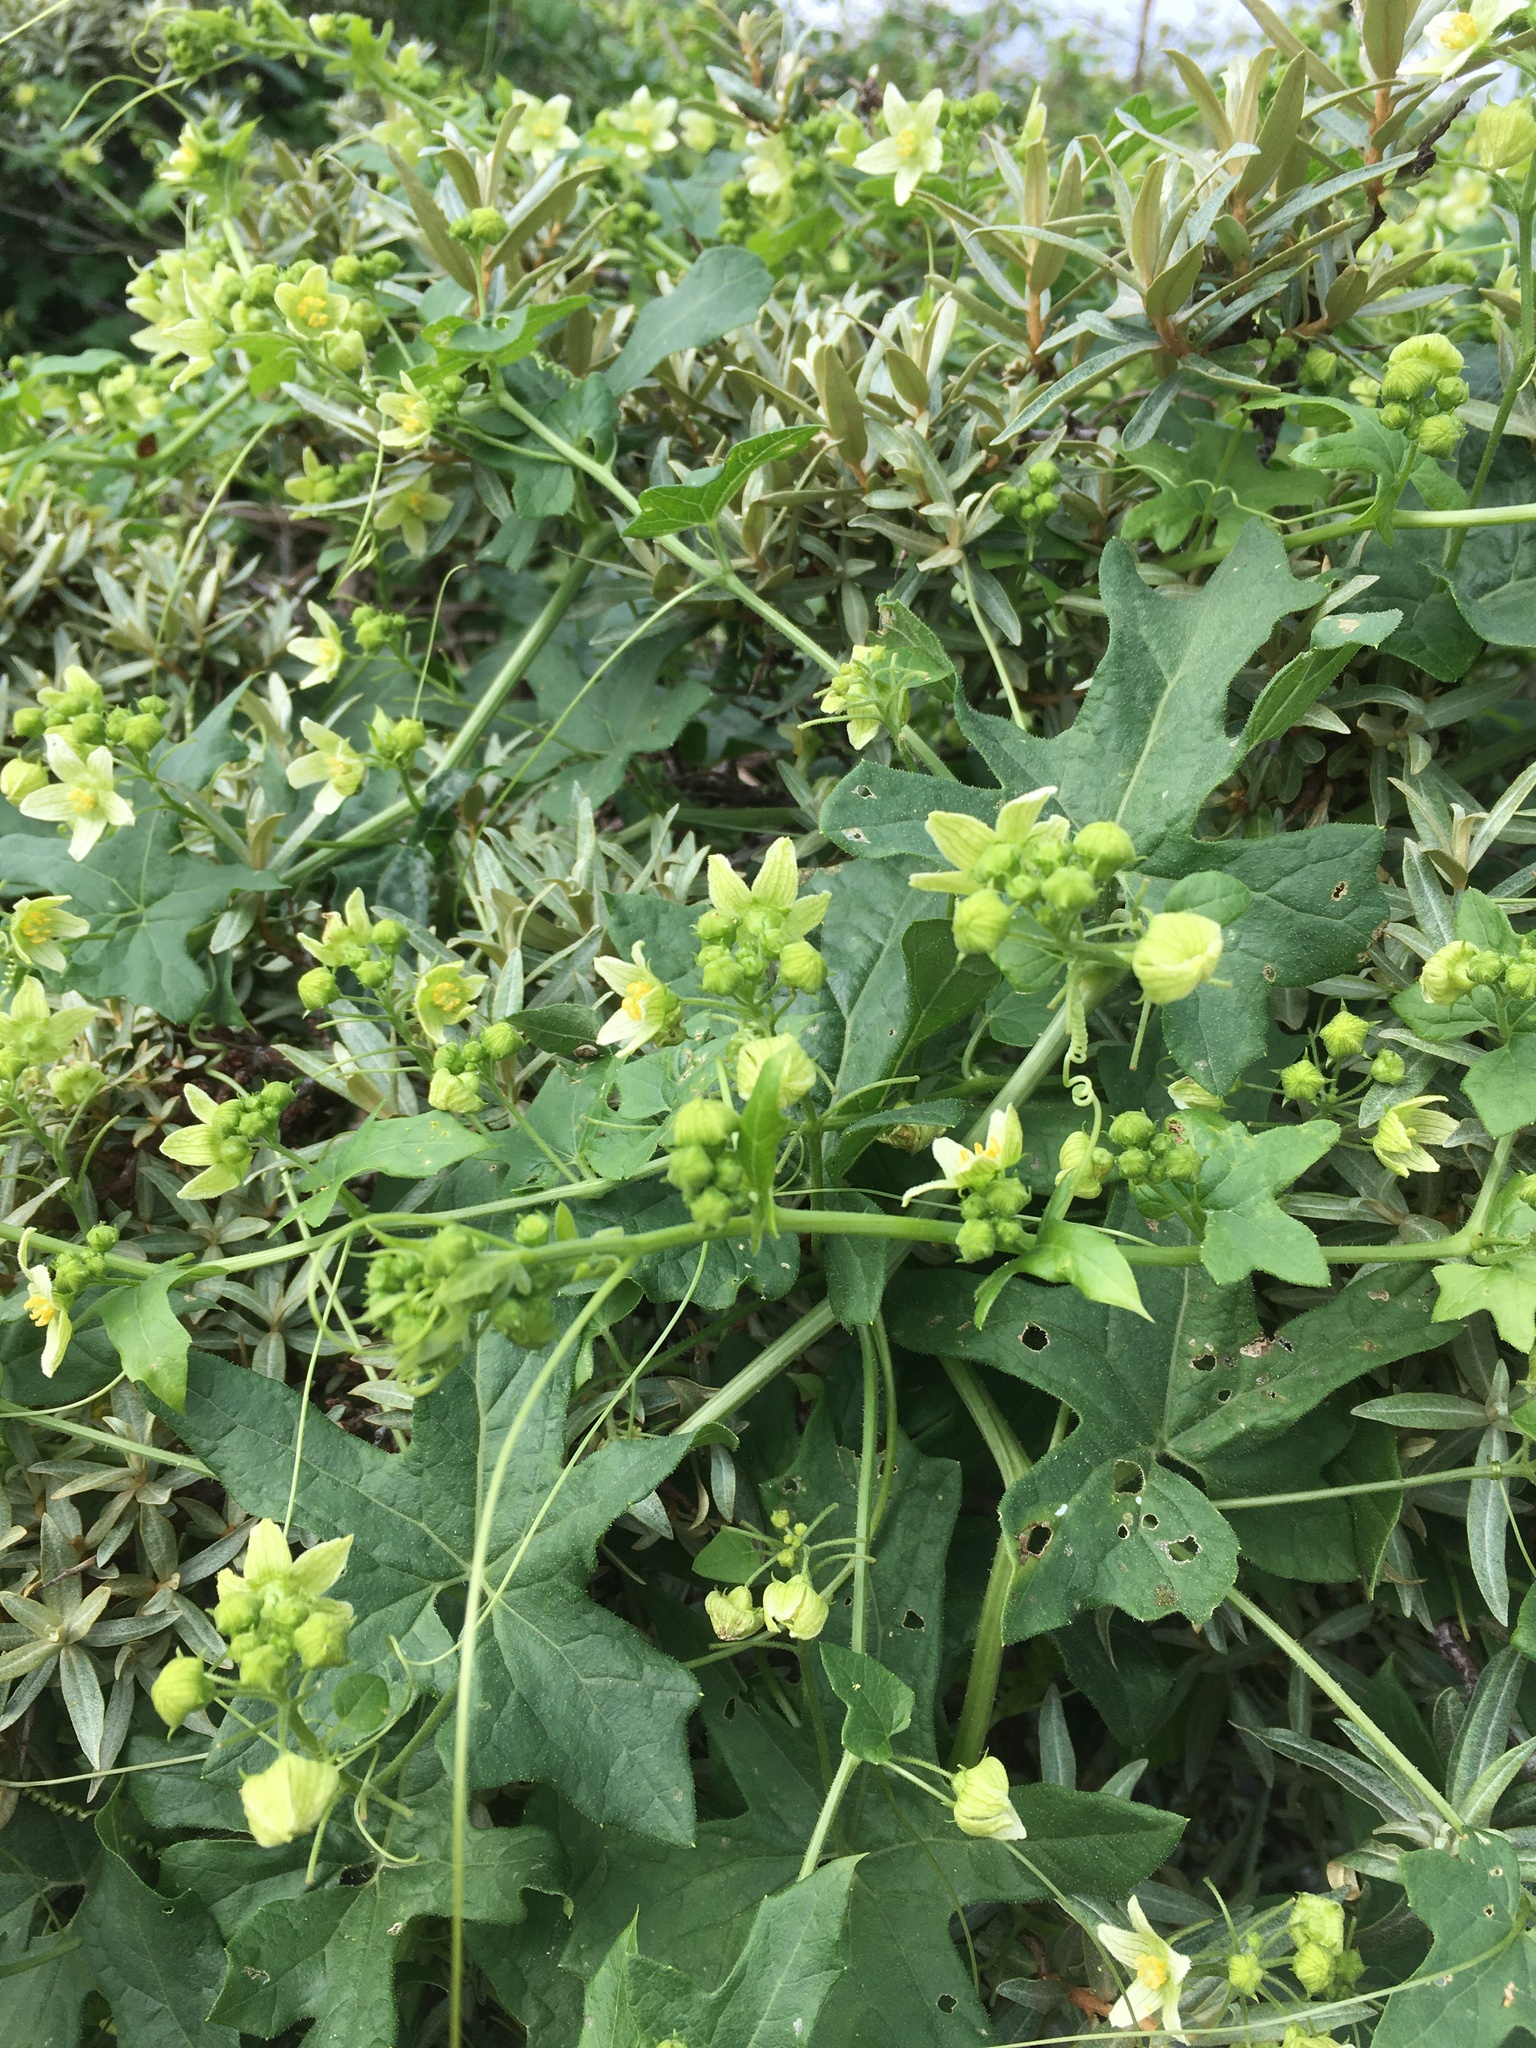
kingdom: Plantae
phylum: Tracheophyta
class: Magnoliopsida
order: Cucurbitales
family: Cucurbitaceae
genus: Bryonia
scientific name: Bryonia cretica
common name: Cretan bryony
